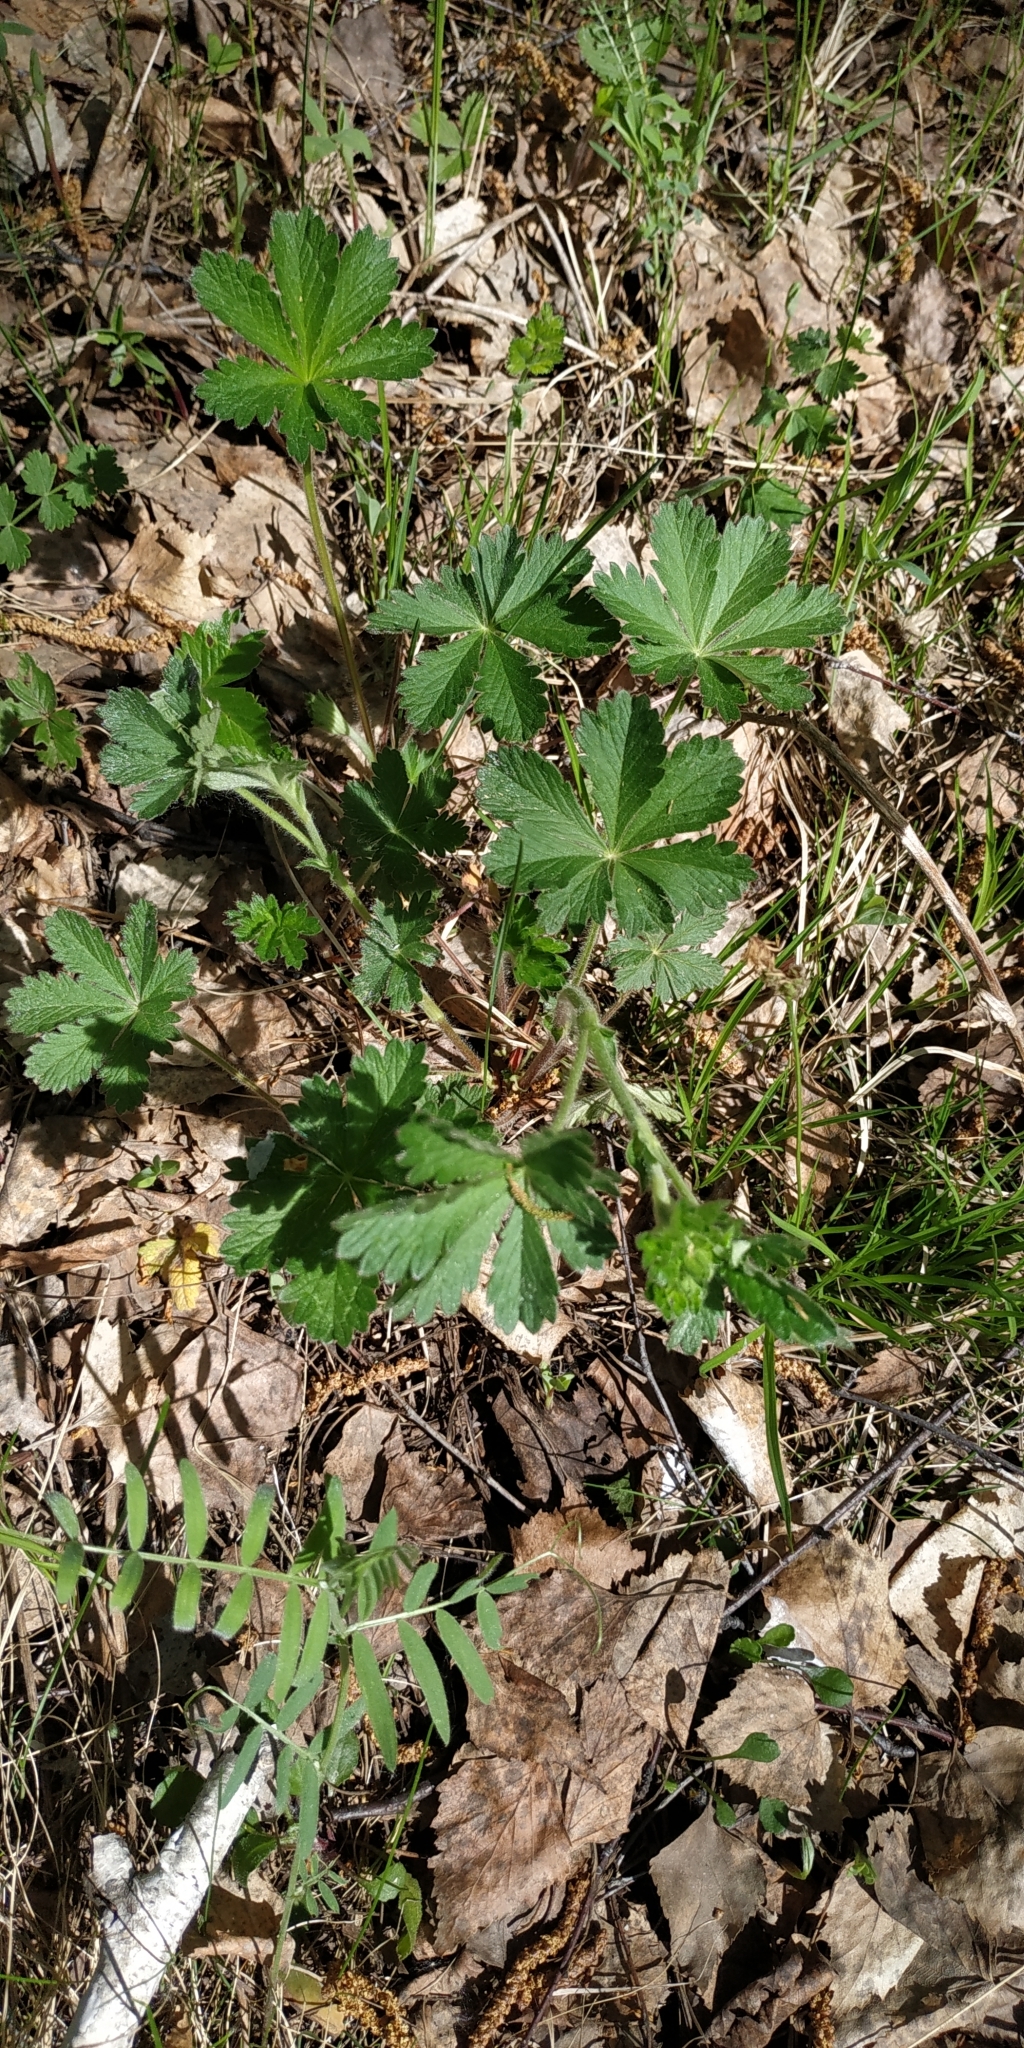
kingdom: Plantae
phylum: Tracheophyta
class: Magnoliopsida
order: Rosales
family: Rosaceae
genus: Potentilla
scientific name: Potentilla thuringiaca
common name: European cinquefoil
